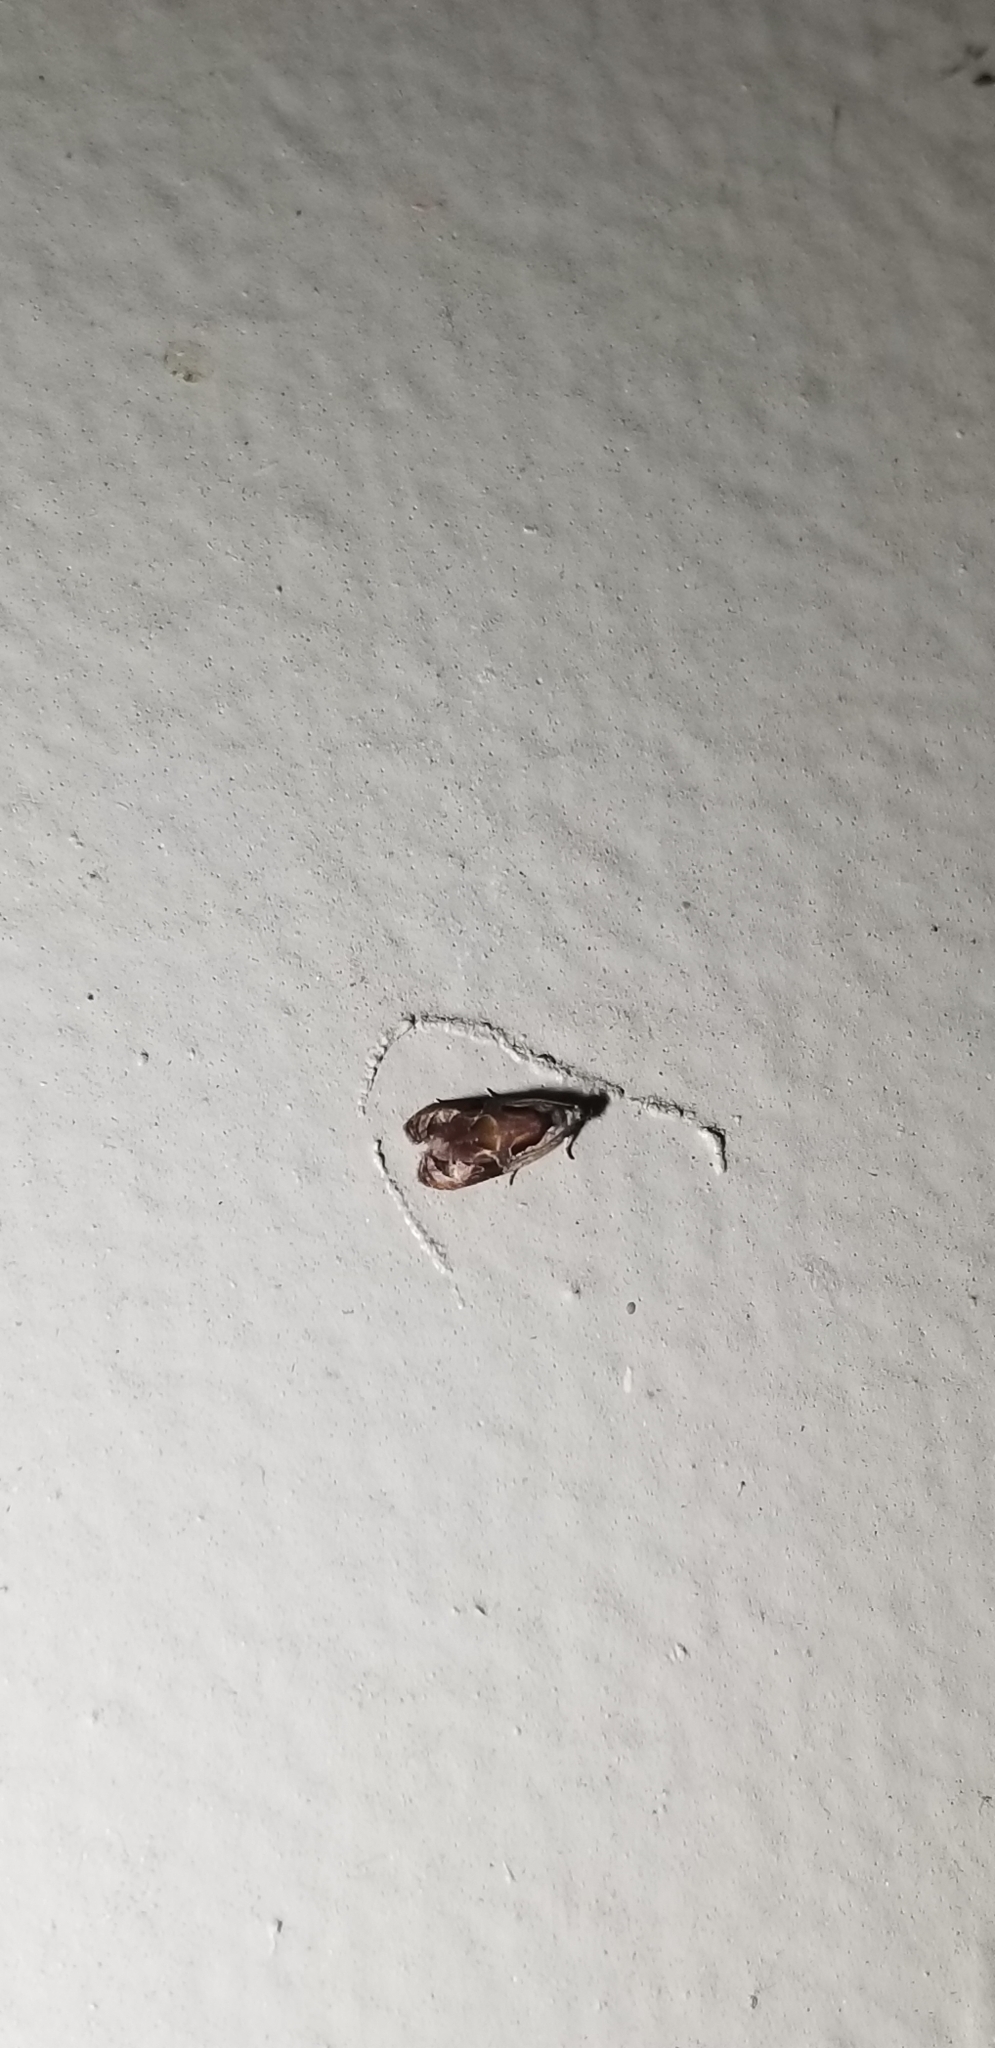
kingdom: Animalia
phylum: Arthropoda
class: Insecta
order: Lepidoptera
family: Tortricidae
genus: Zomaria
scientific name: Zomaria interruptolineana
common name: Broken-lined zomaria moth
